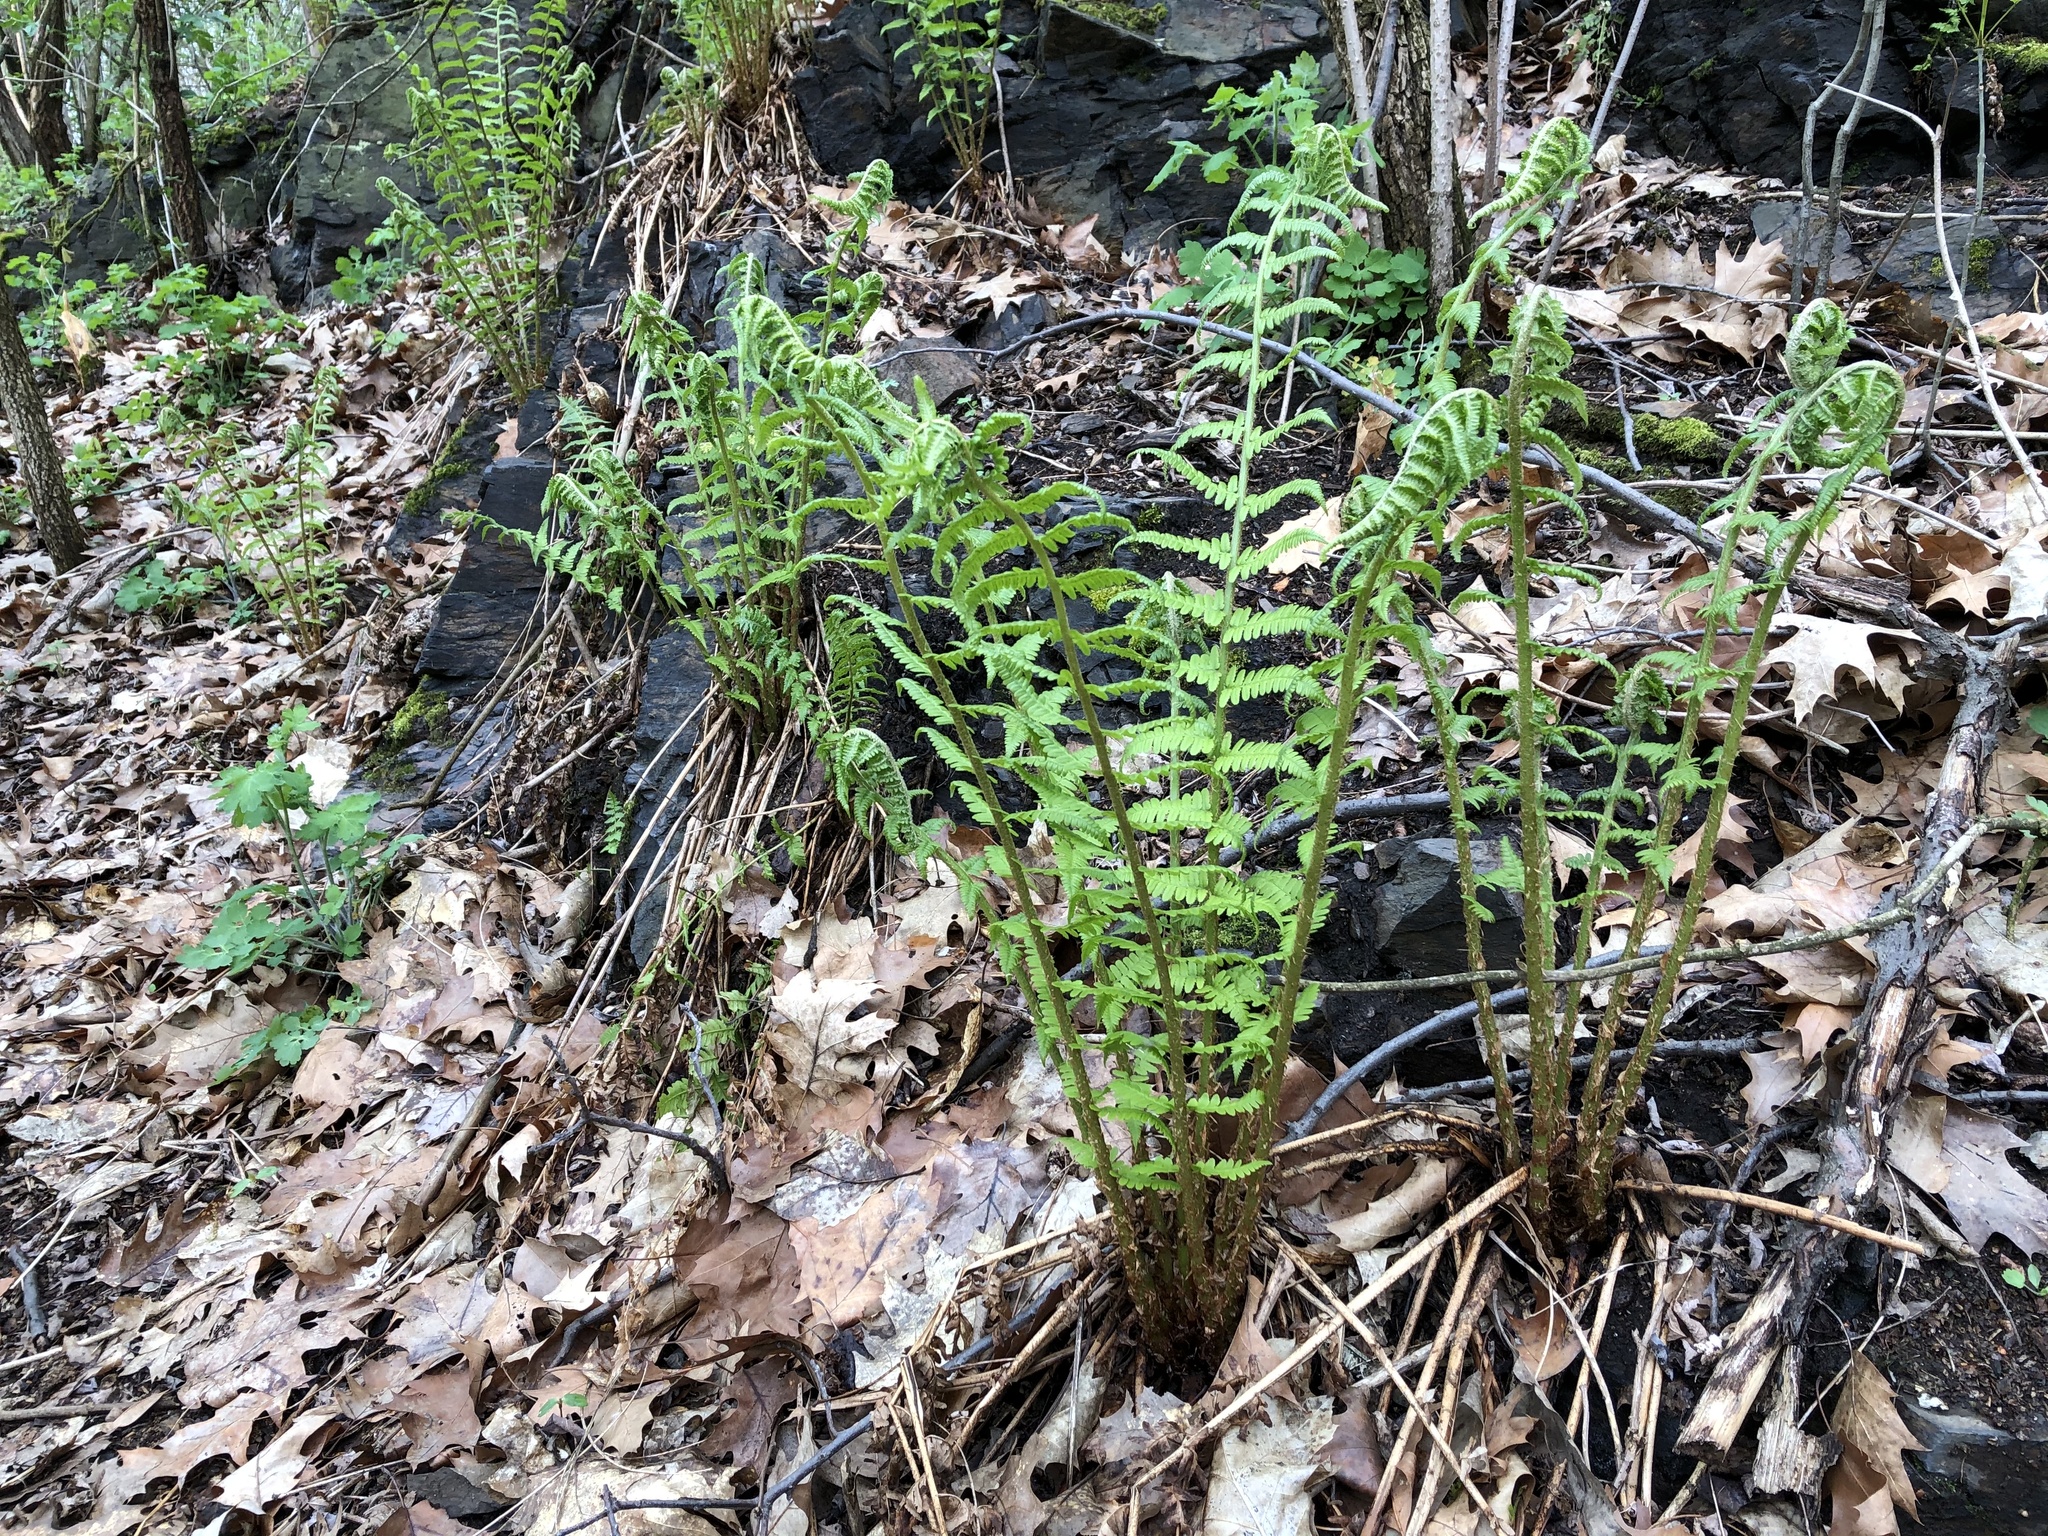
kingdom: Plantae
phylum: Tracheophyta
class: Polypodiopsida
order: Polypodiales
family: Dryopteridaceae
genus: Dryopteris
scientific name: Dryopteris filix-mas
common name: Male fern
